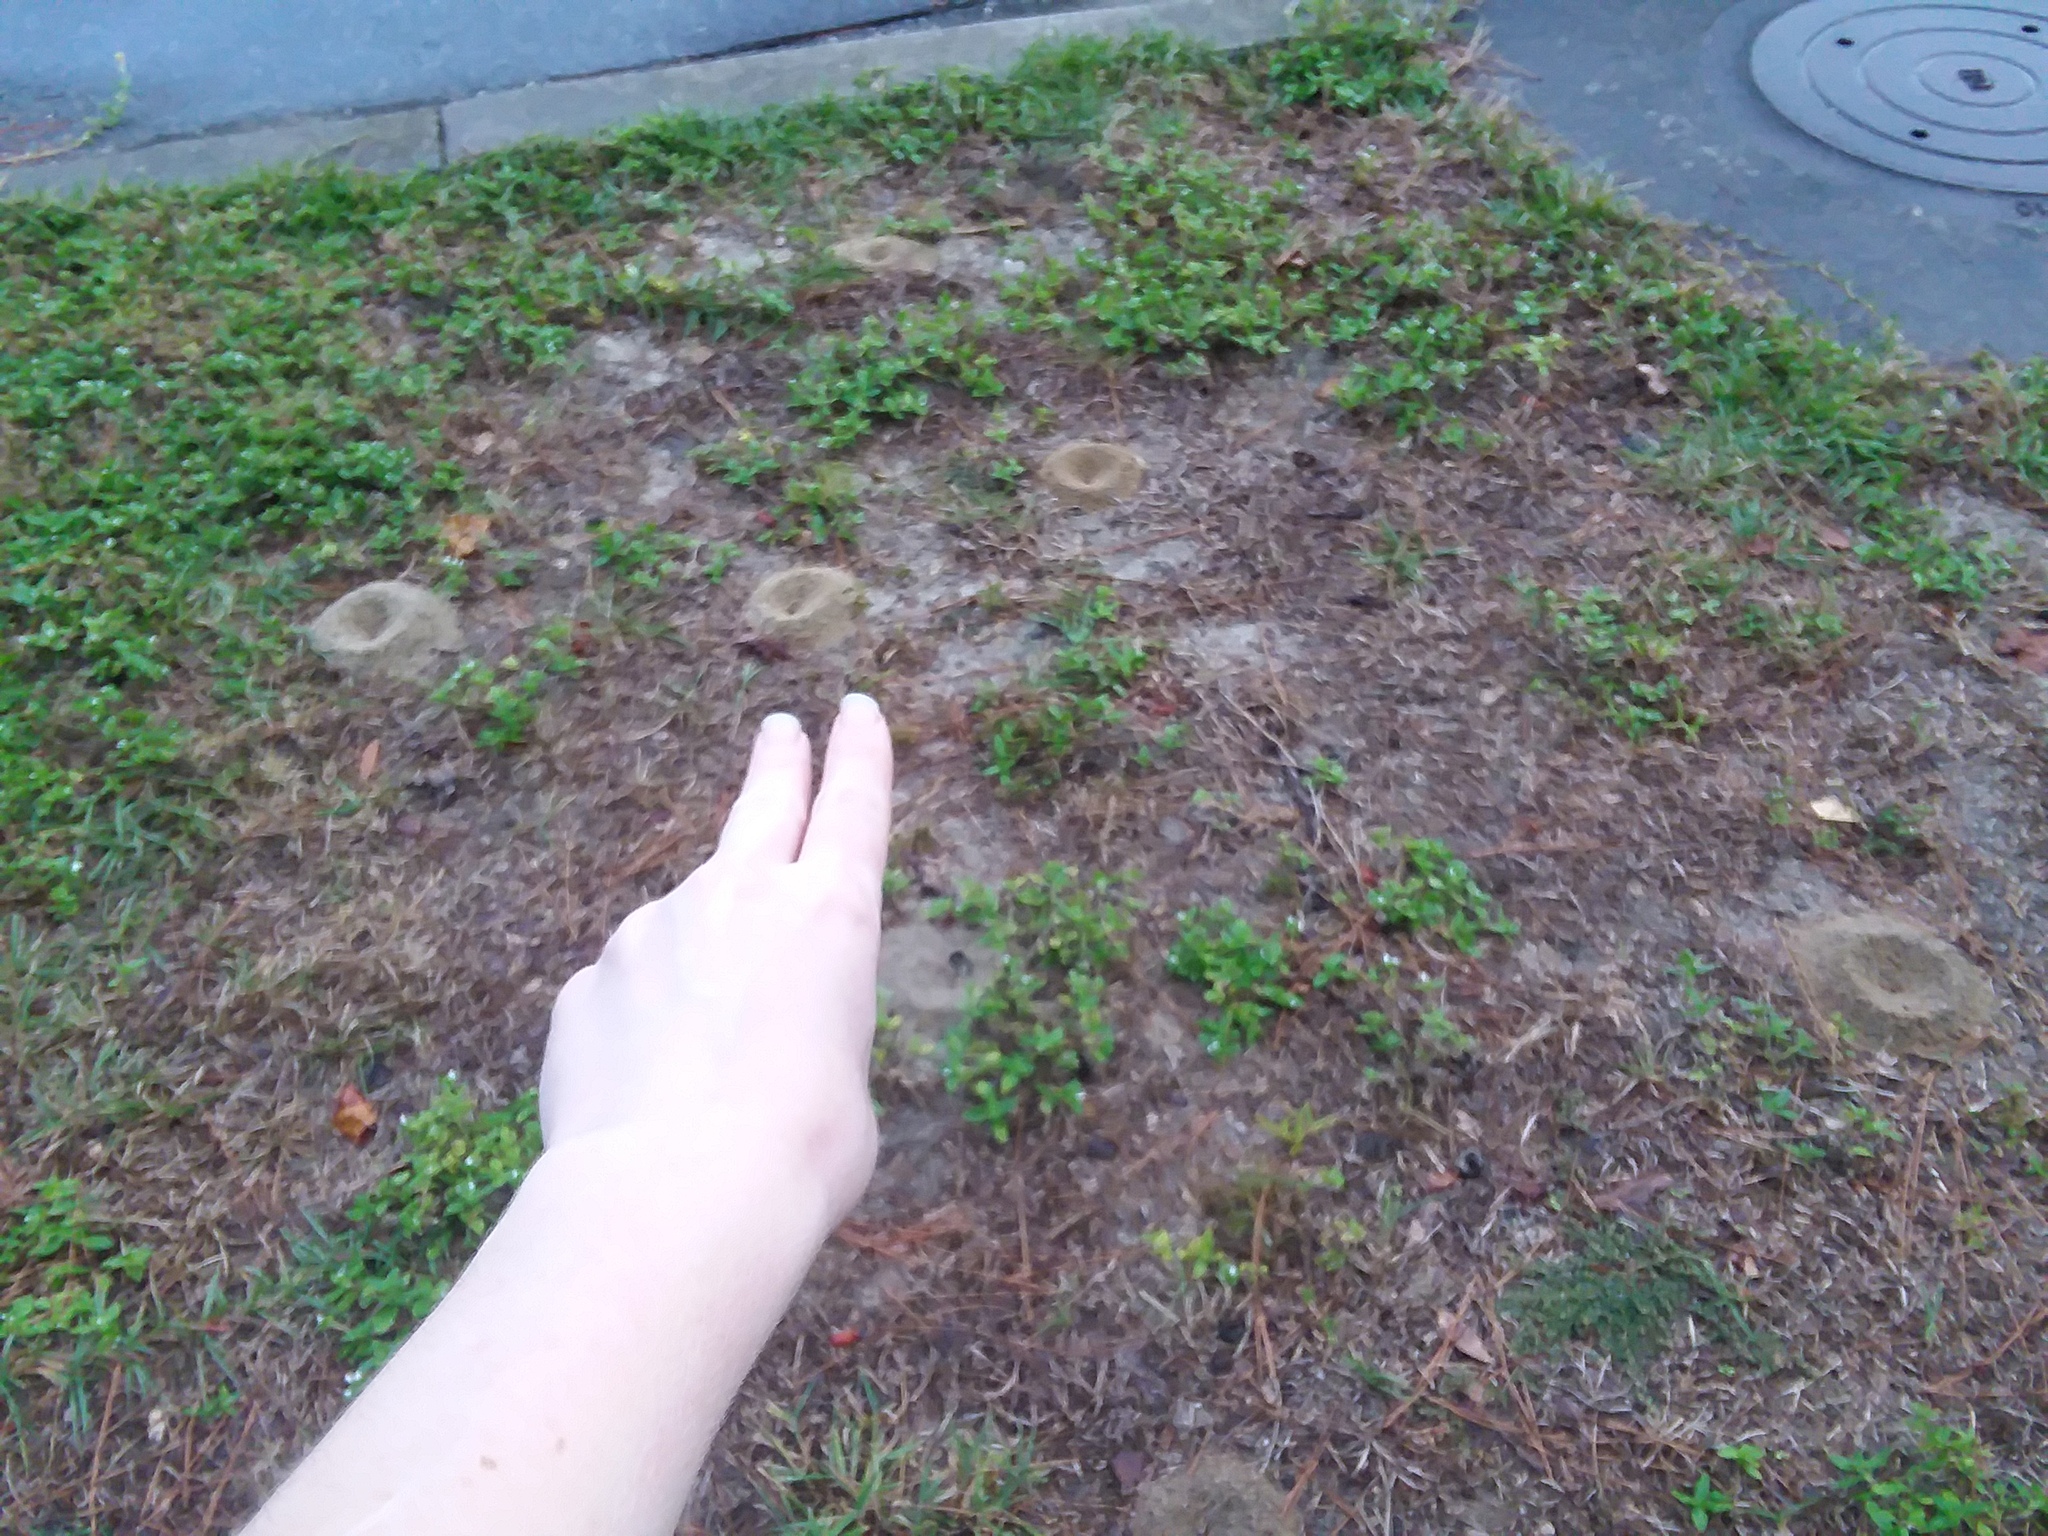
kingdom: Animalia
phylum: Arthropoda
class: Insecta
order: Hymenoptera
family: Formicidae
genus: Dorymyrmex
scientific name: Dorymyrmex bureni
